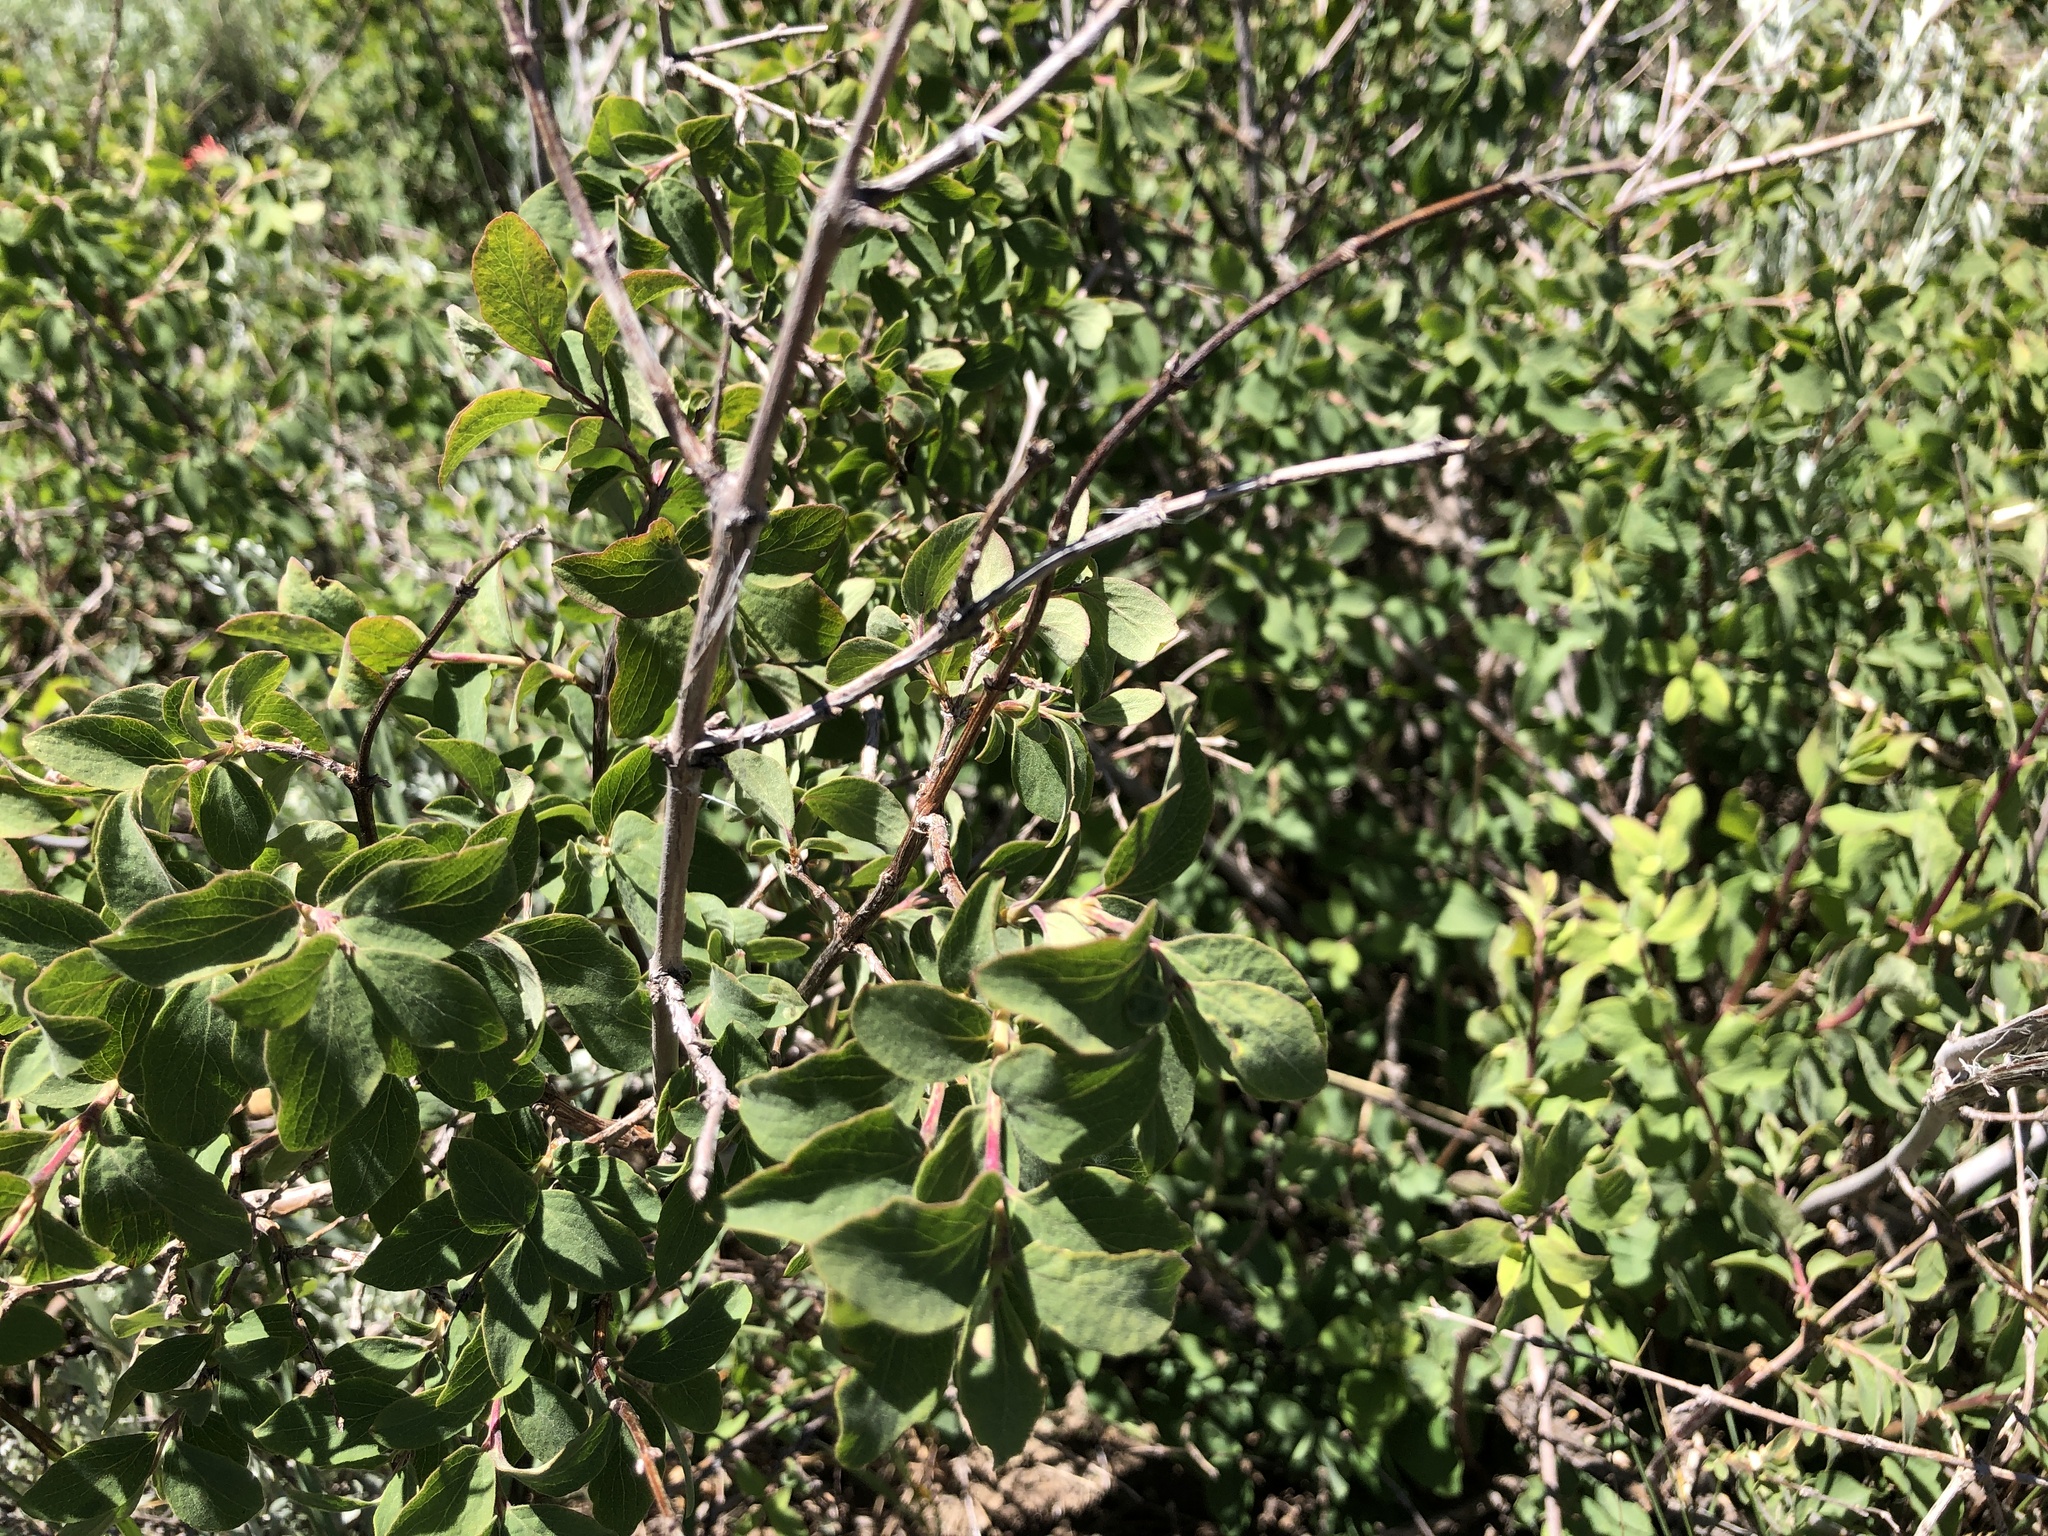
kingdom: Plantae
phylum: Tracheophyta
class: Magnoliopsida
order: Dipsacales
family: Caprifoliaceae
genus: Symphoricarpos
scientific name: Symphoricarpos rotundifolius
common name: Round-leaved snowberry
